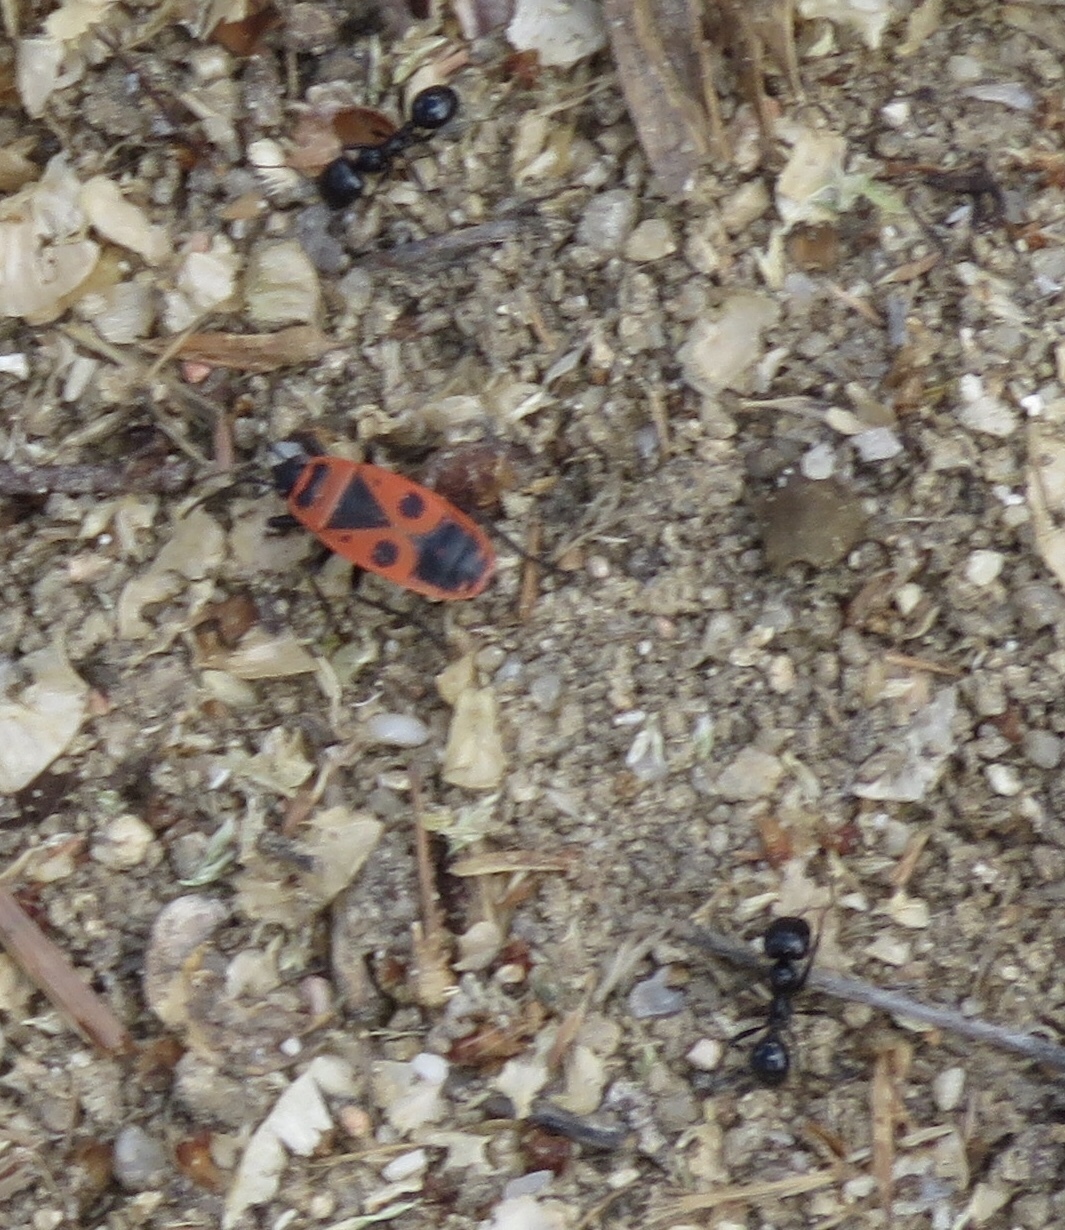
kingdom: Animalia
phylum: Arthropoda
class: Insecta
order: Hemiptera
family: Pyrrhocoridae
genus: Pyrrhocoris
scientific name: Pyrrhocoris apterus
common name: Firebug
